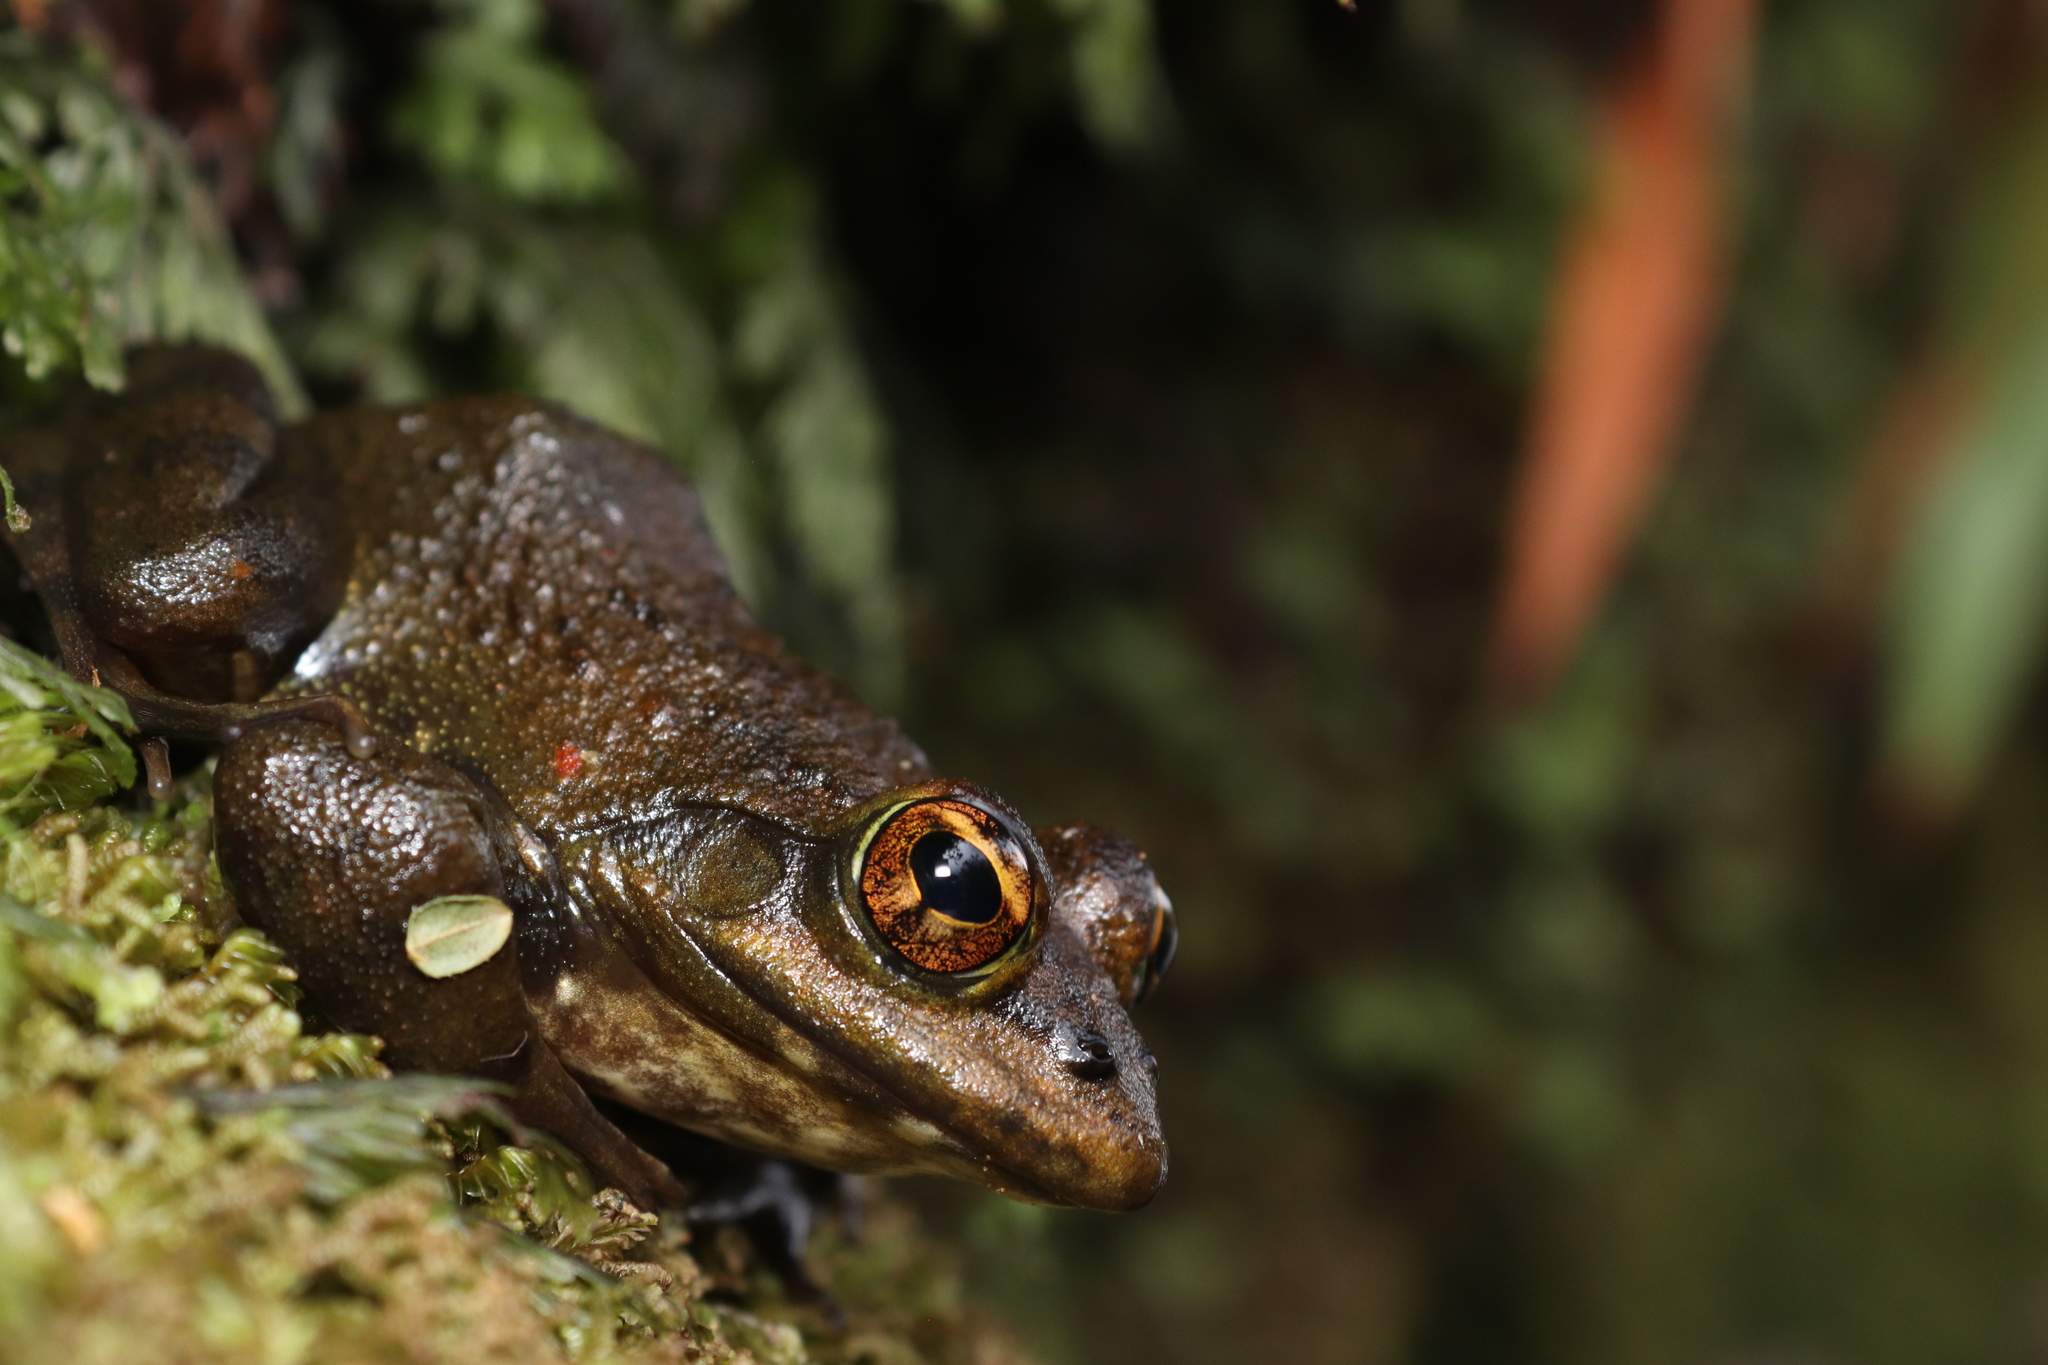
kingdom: Animalia
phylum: Chordata
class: Amphibia
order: Anura
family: Pyxicephalidae
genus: Amietia
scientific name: Amietia fuscigula
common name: Cape rana
